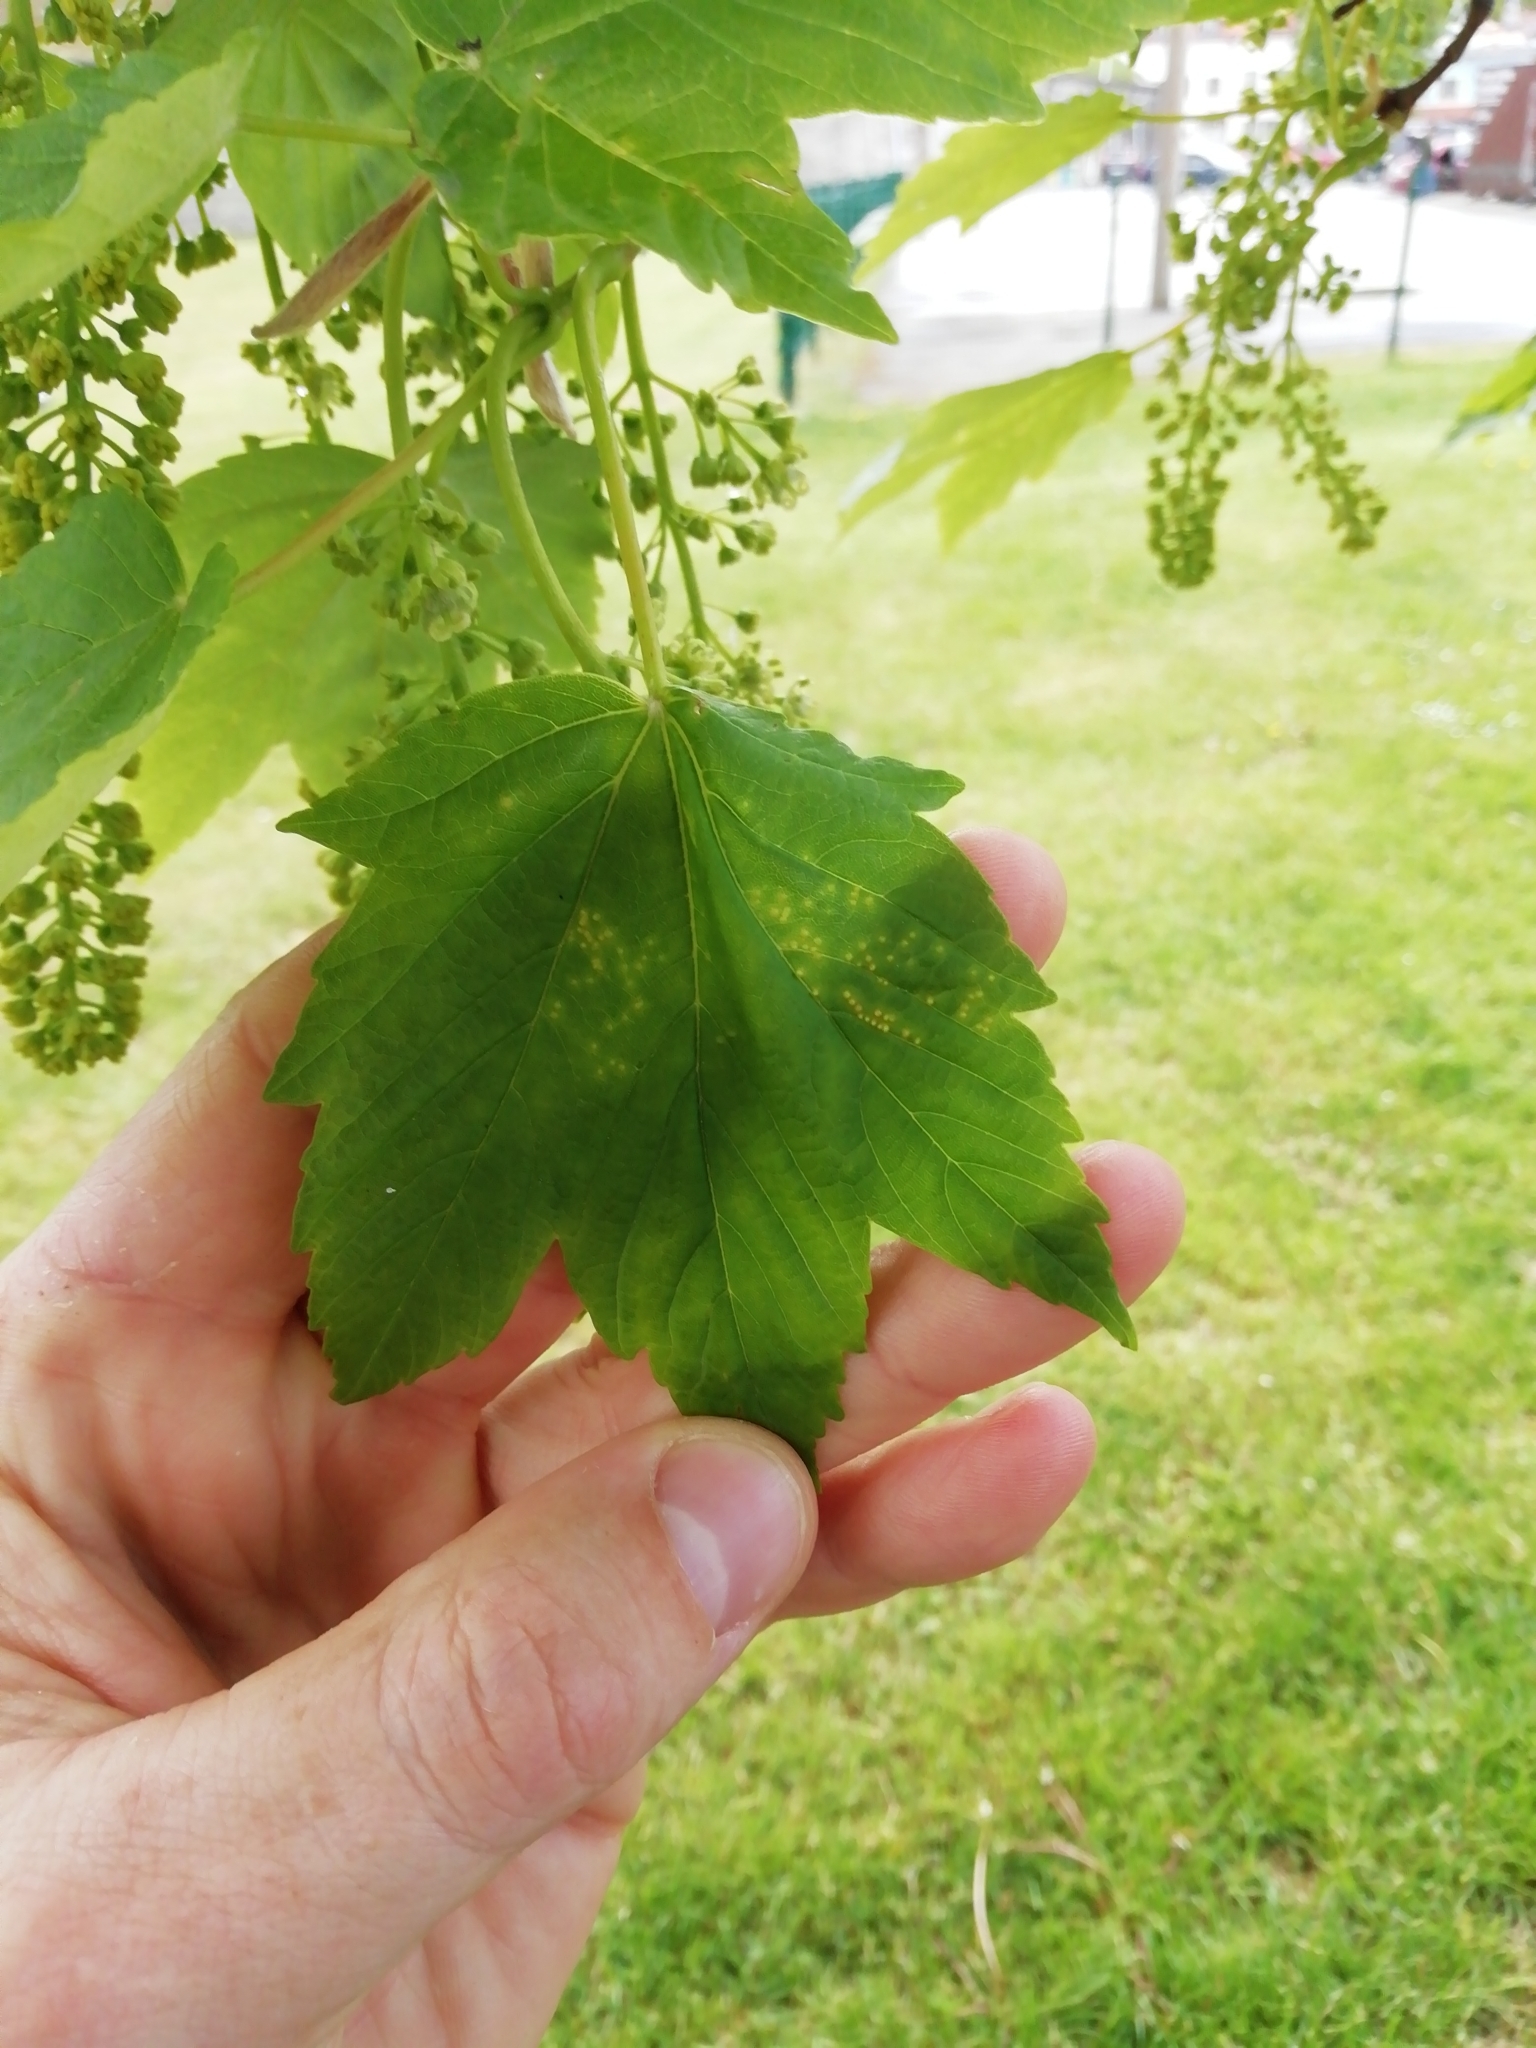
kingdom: Plantae
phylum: Tracheophyta
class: Magnoliopsida
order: Sapindales
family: Sapindaceae
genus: Acer
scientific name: Acer pseudoplatanus
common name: Sycamore
